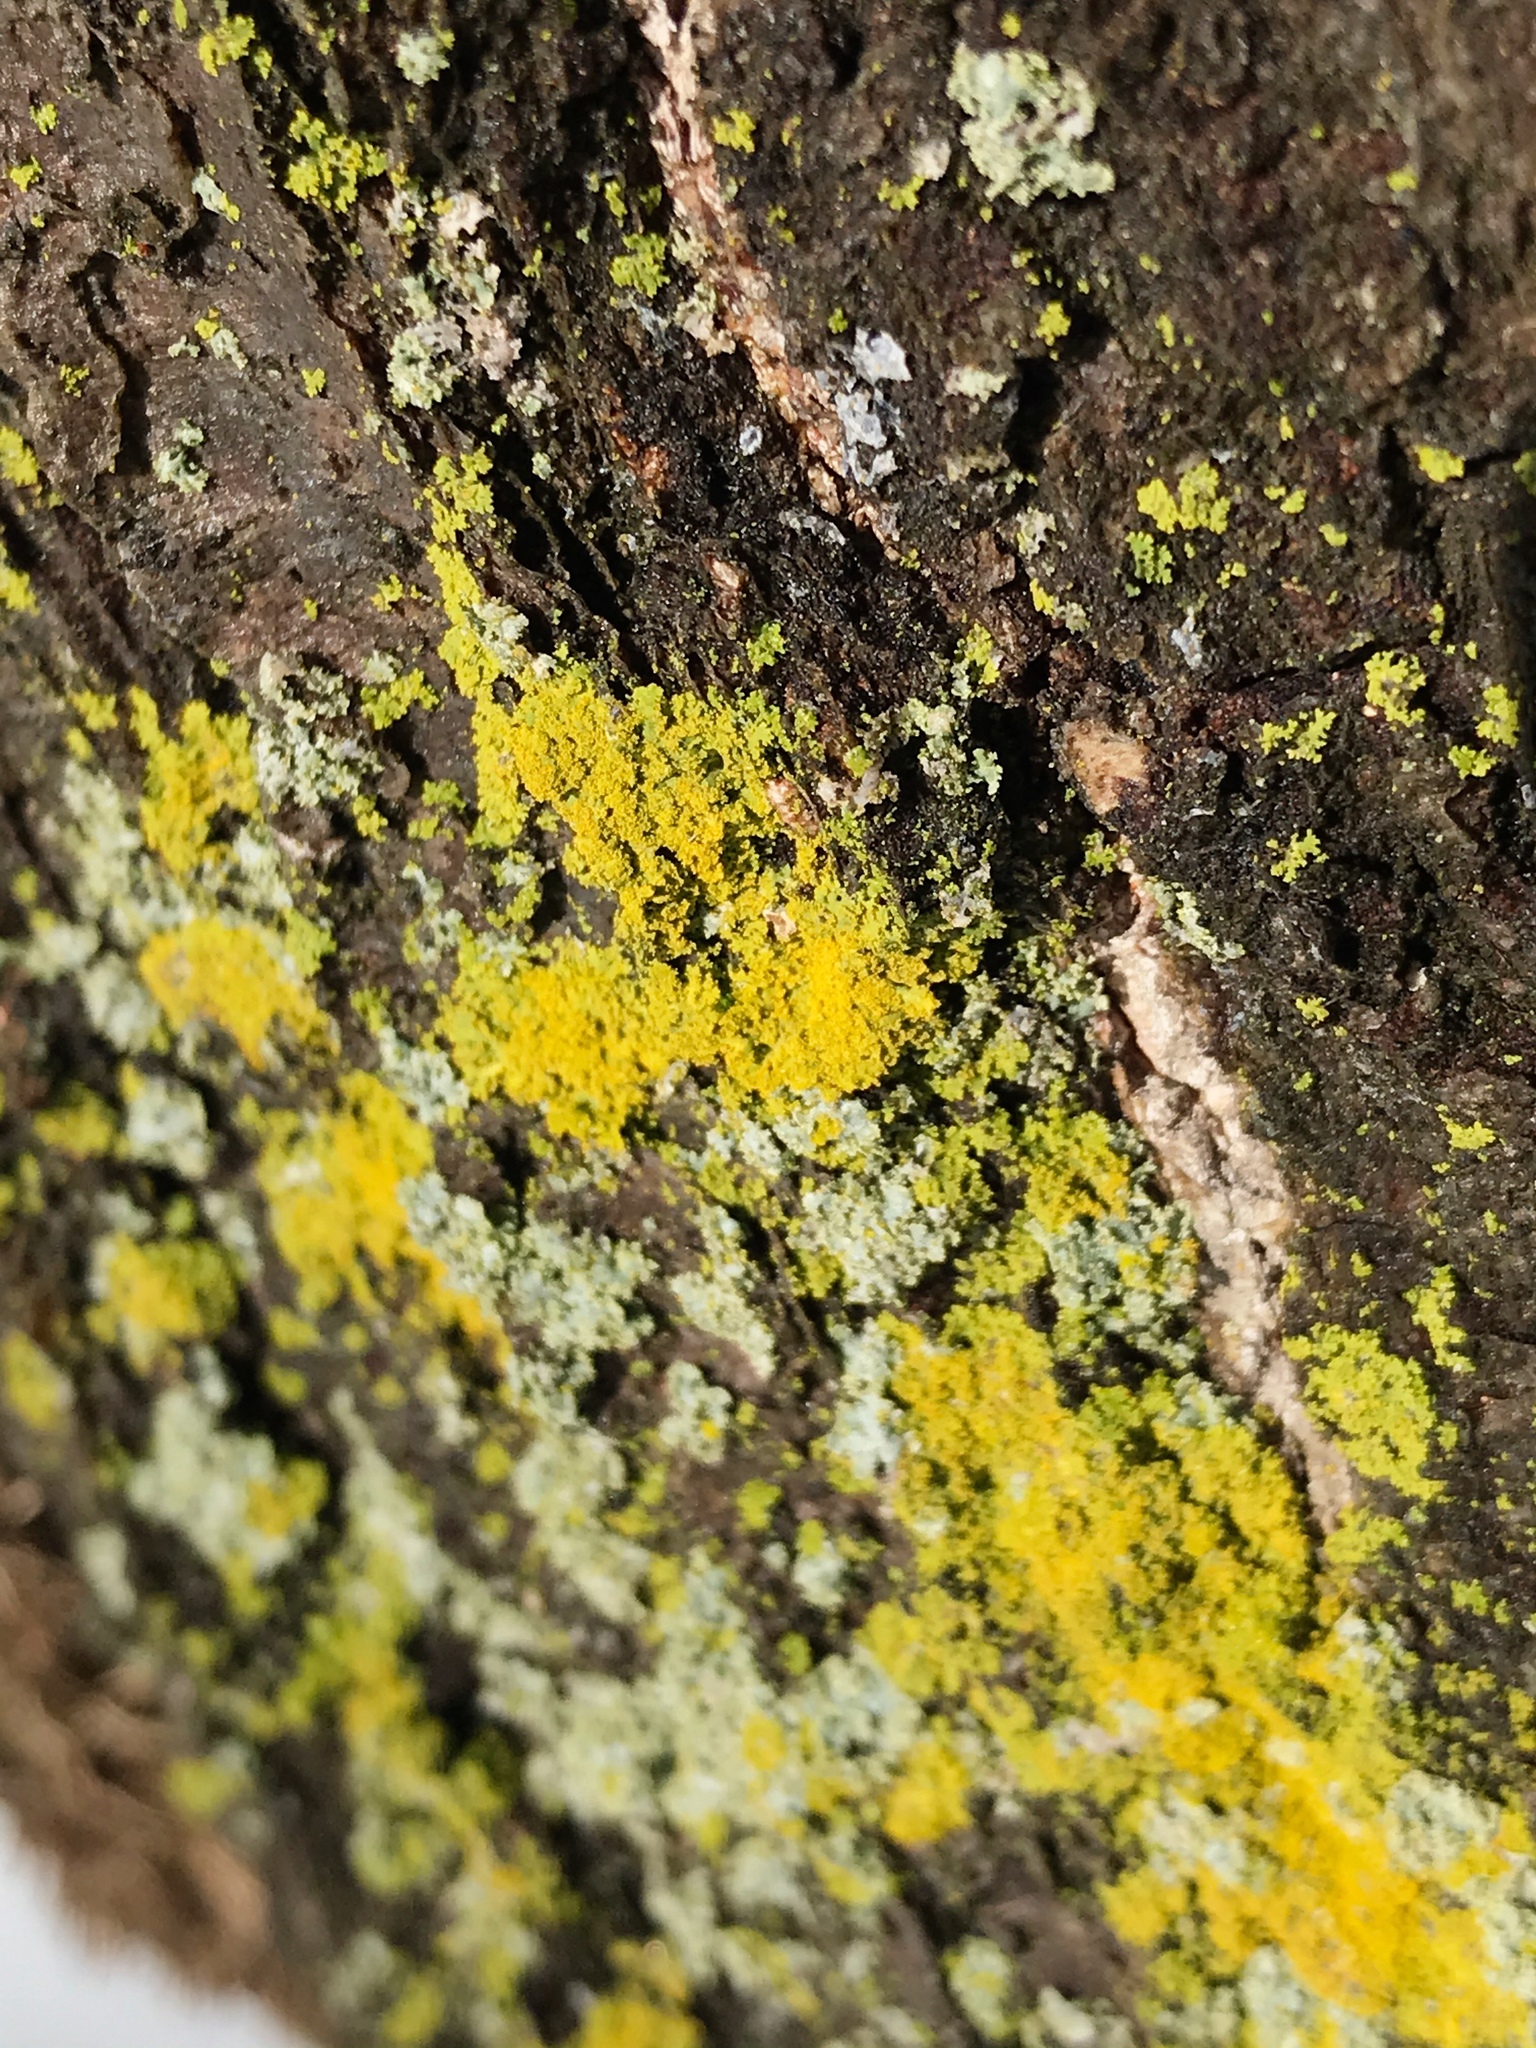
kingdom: Fungi
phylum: Ascomycota
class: Candelariomycetes
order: Candelariales
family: Candelariaceae
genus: Candelaria
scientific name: Candelaria concolor
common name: Candleflame lichen
